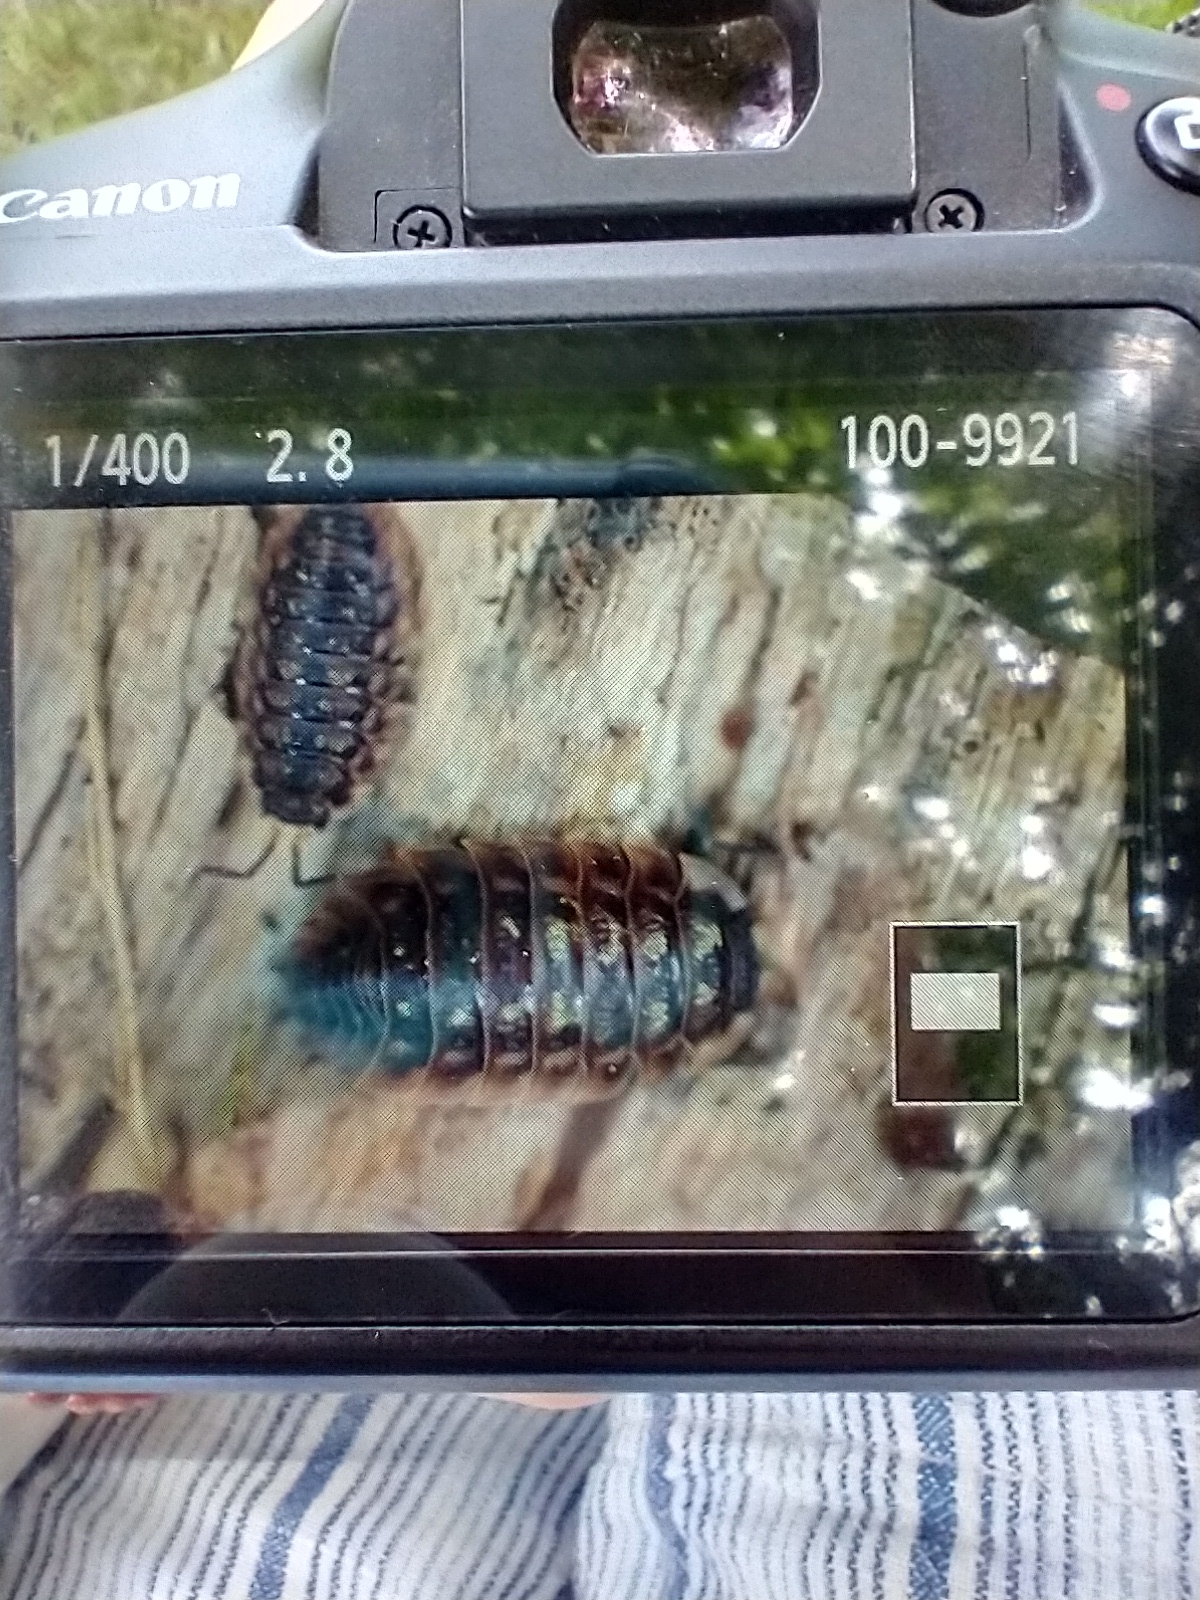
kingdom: Animalia
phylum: Arthropoda
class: Malacostraca
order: Isopoda
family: Oniscidae
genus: Oniscus
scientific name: Oniscus asellus
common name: Common shiny woodlouse
